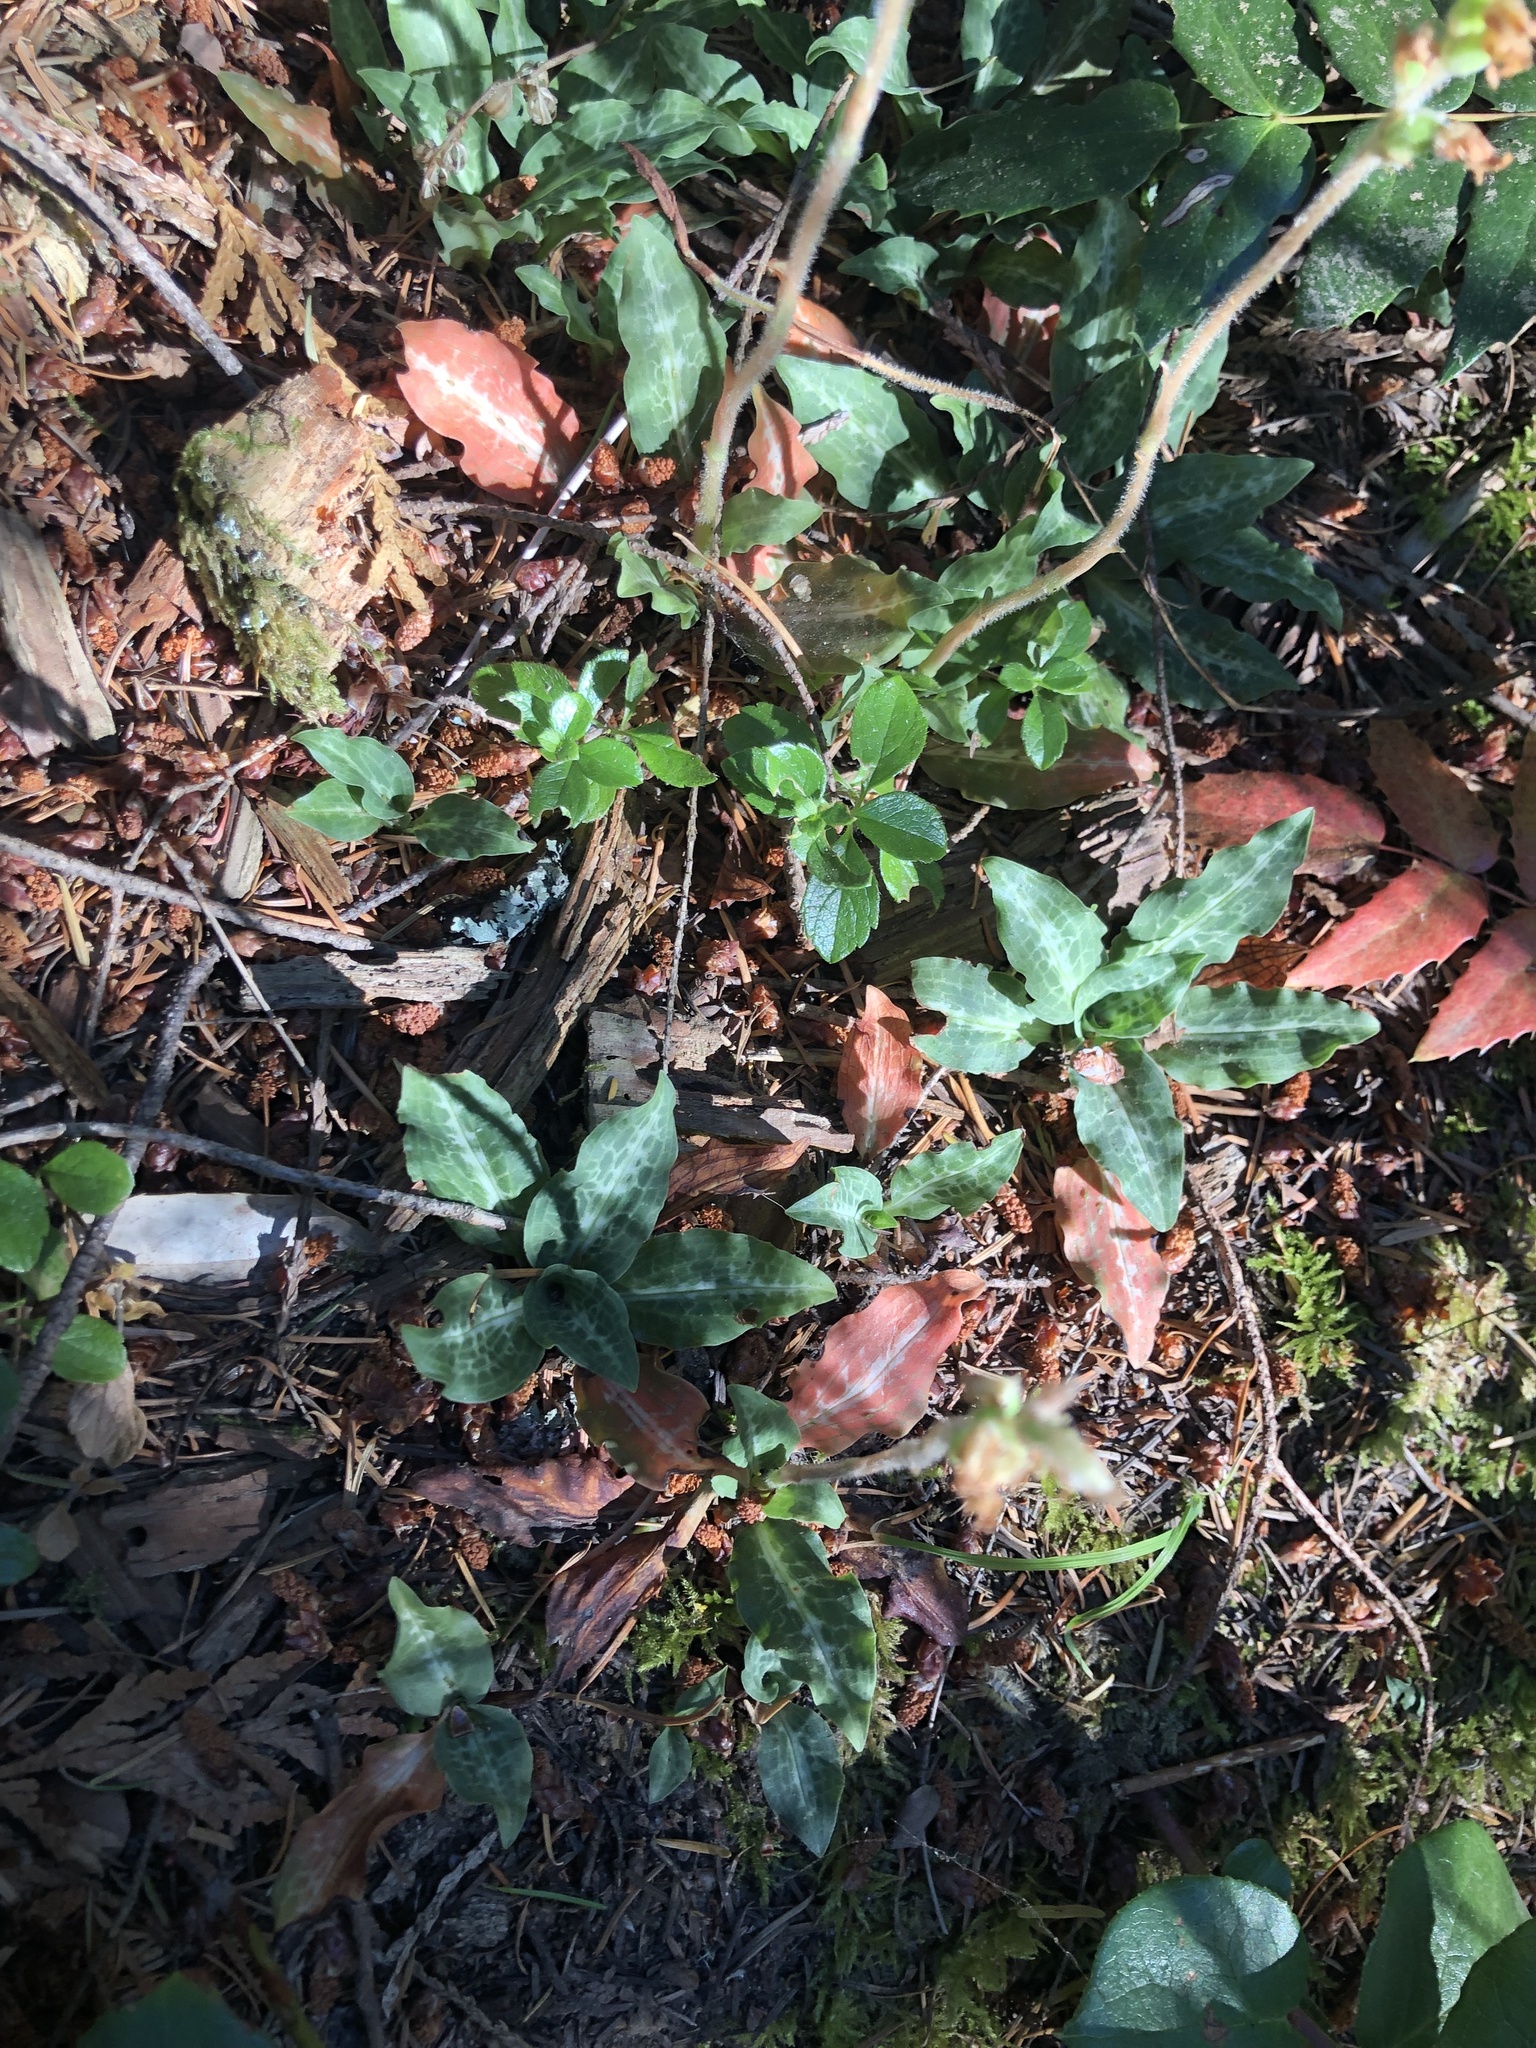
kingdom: Plantae
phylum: Tracheophyta
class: Liliopsida
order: Asparagales
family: Orchidaceae
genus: Goodyera
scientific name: Goodyera oblongifolia
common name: Giant rattlesnake-plantain
